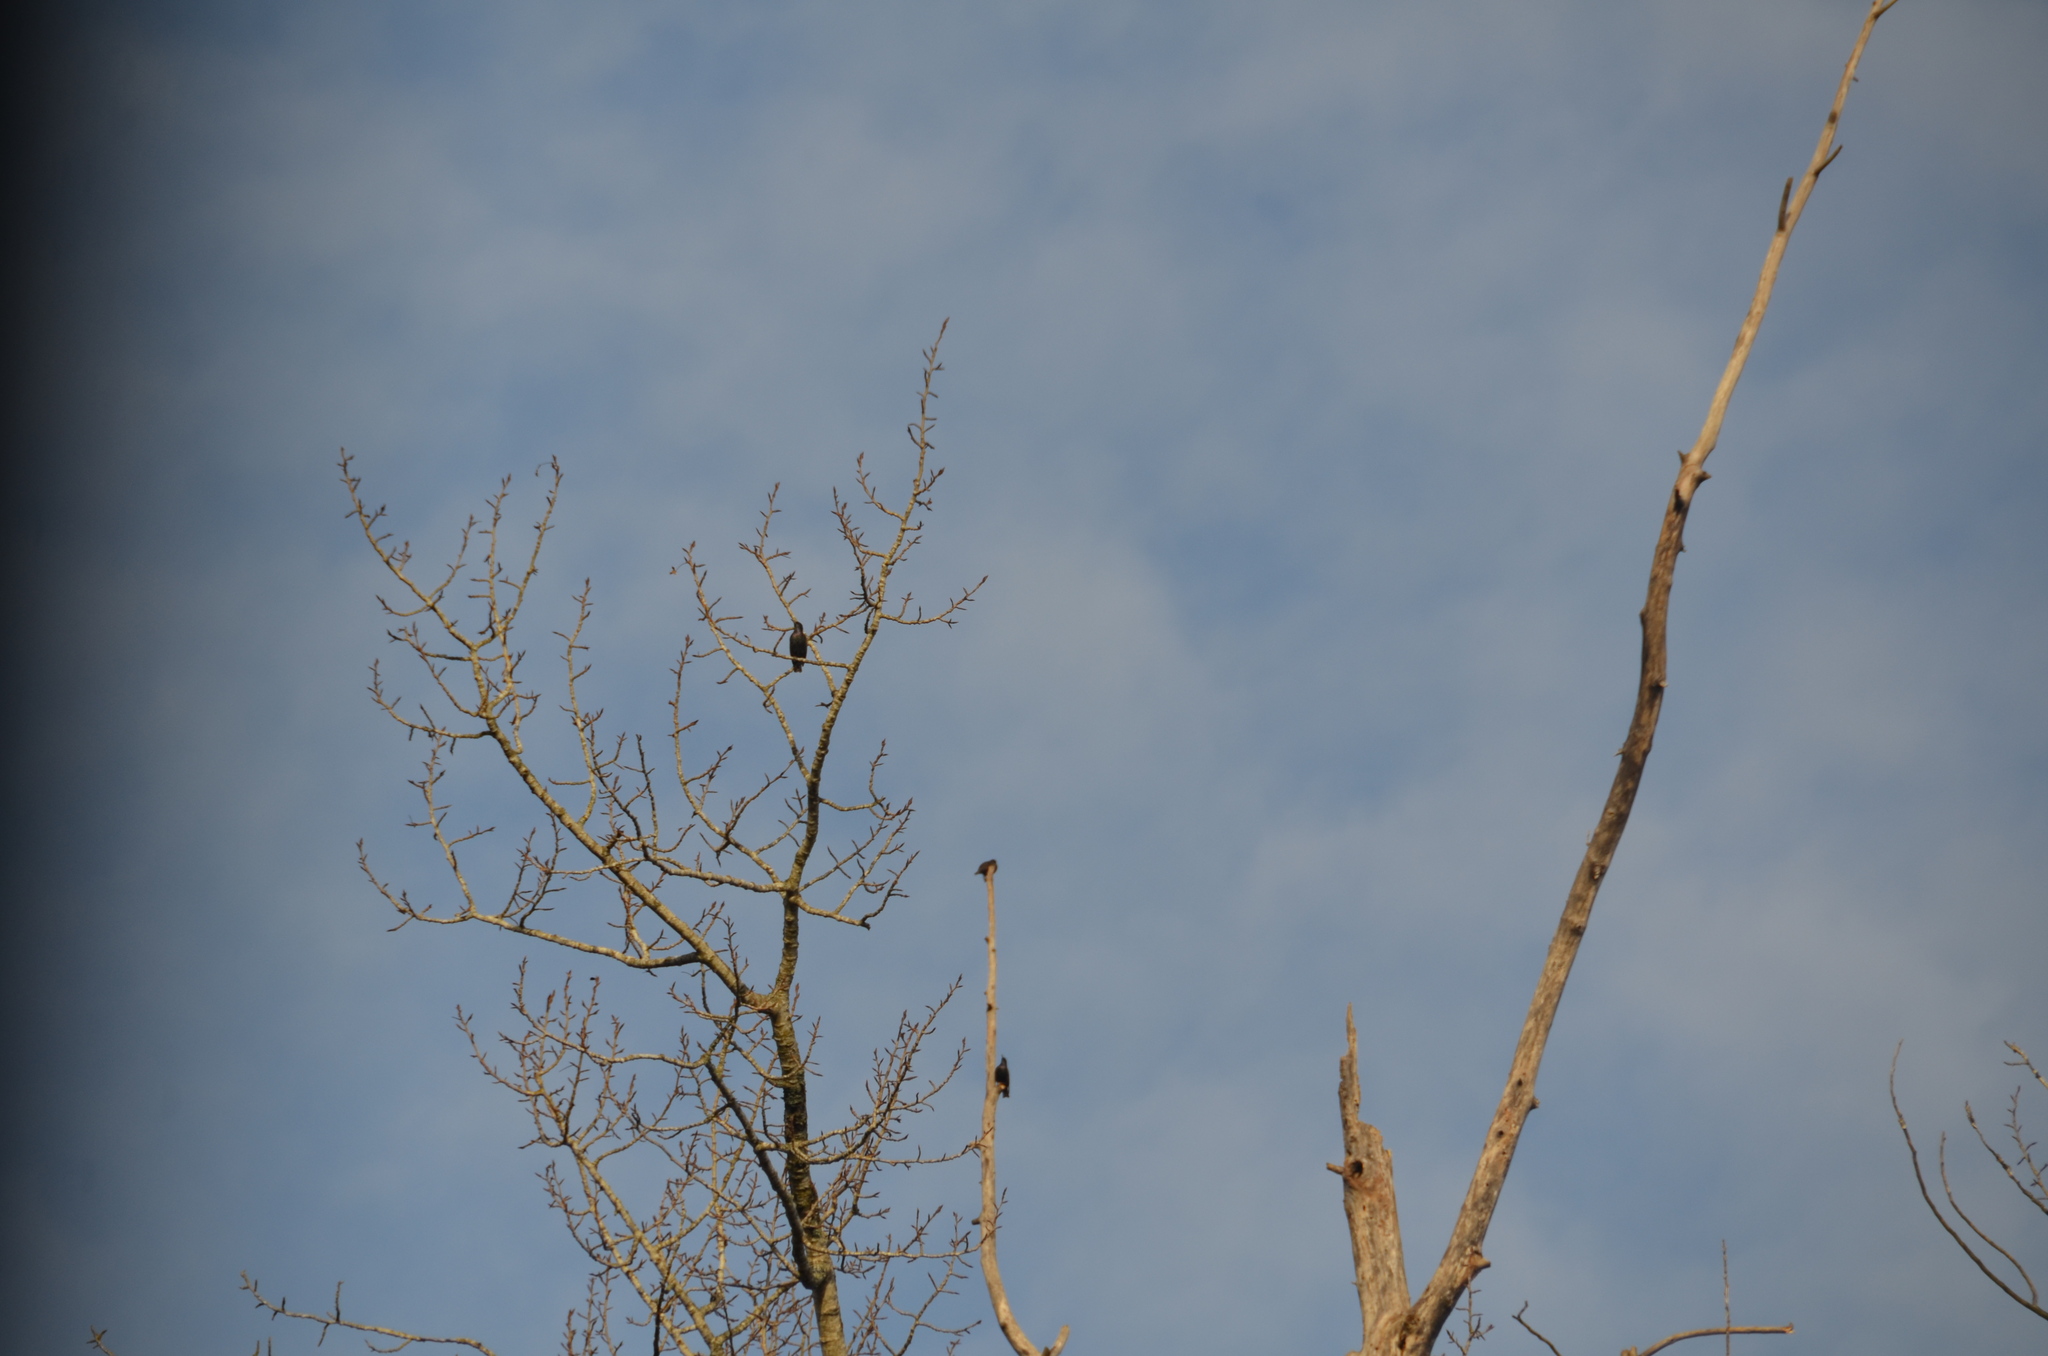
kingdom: Animalia
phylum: Chordata
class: Aves
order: Passeriformes
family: Sturnidae
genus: Sturnus
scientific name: Sturnus vulgaris
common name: Common starling
